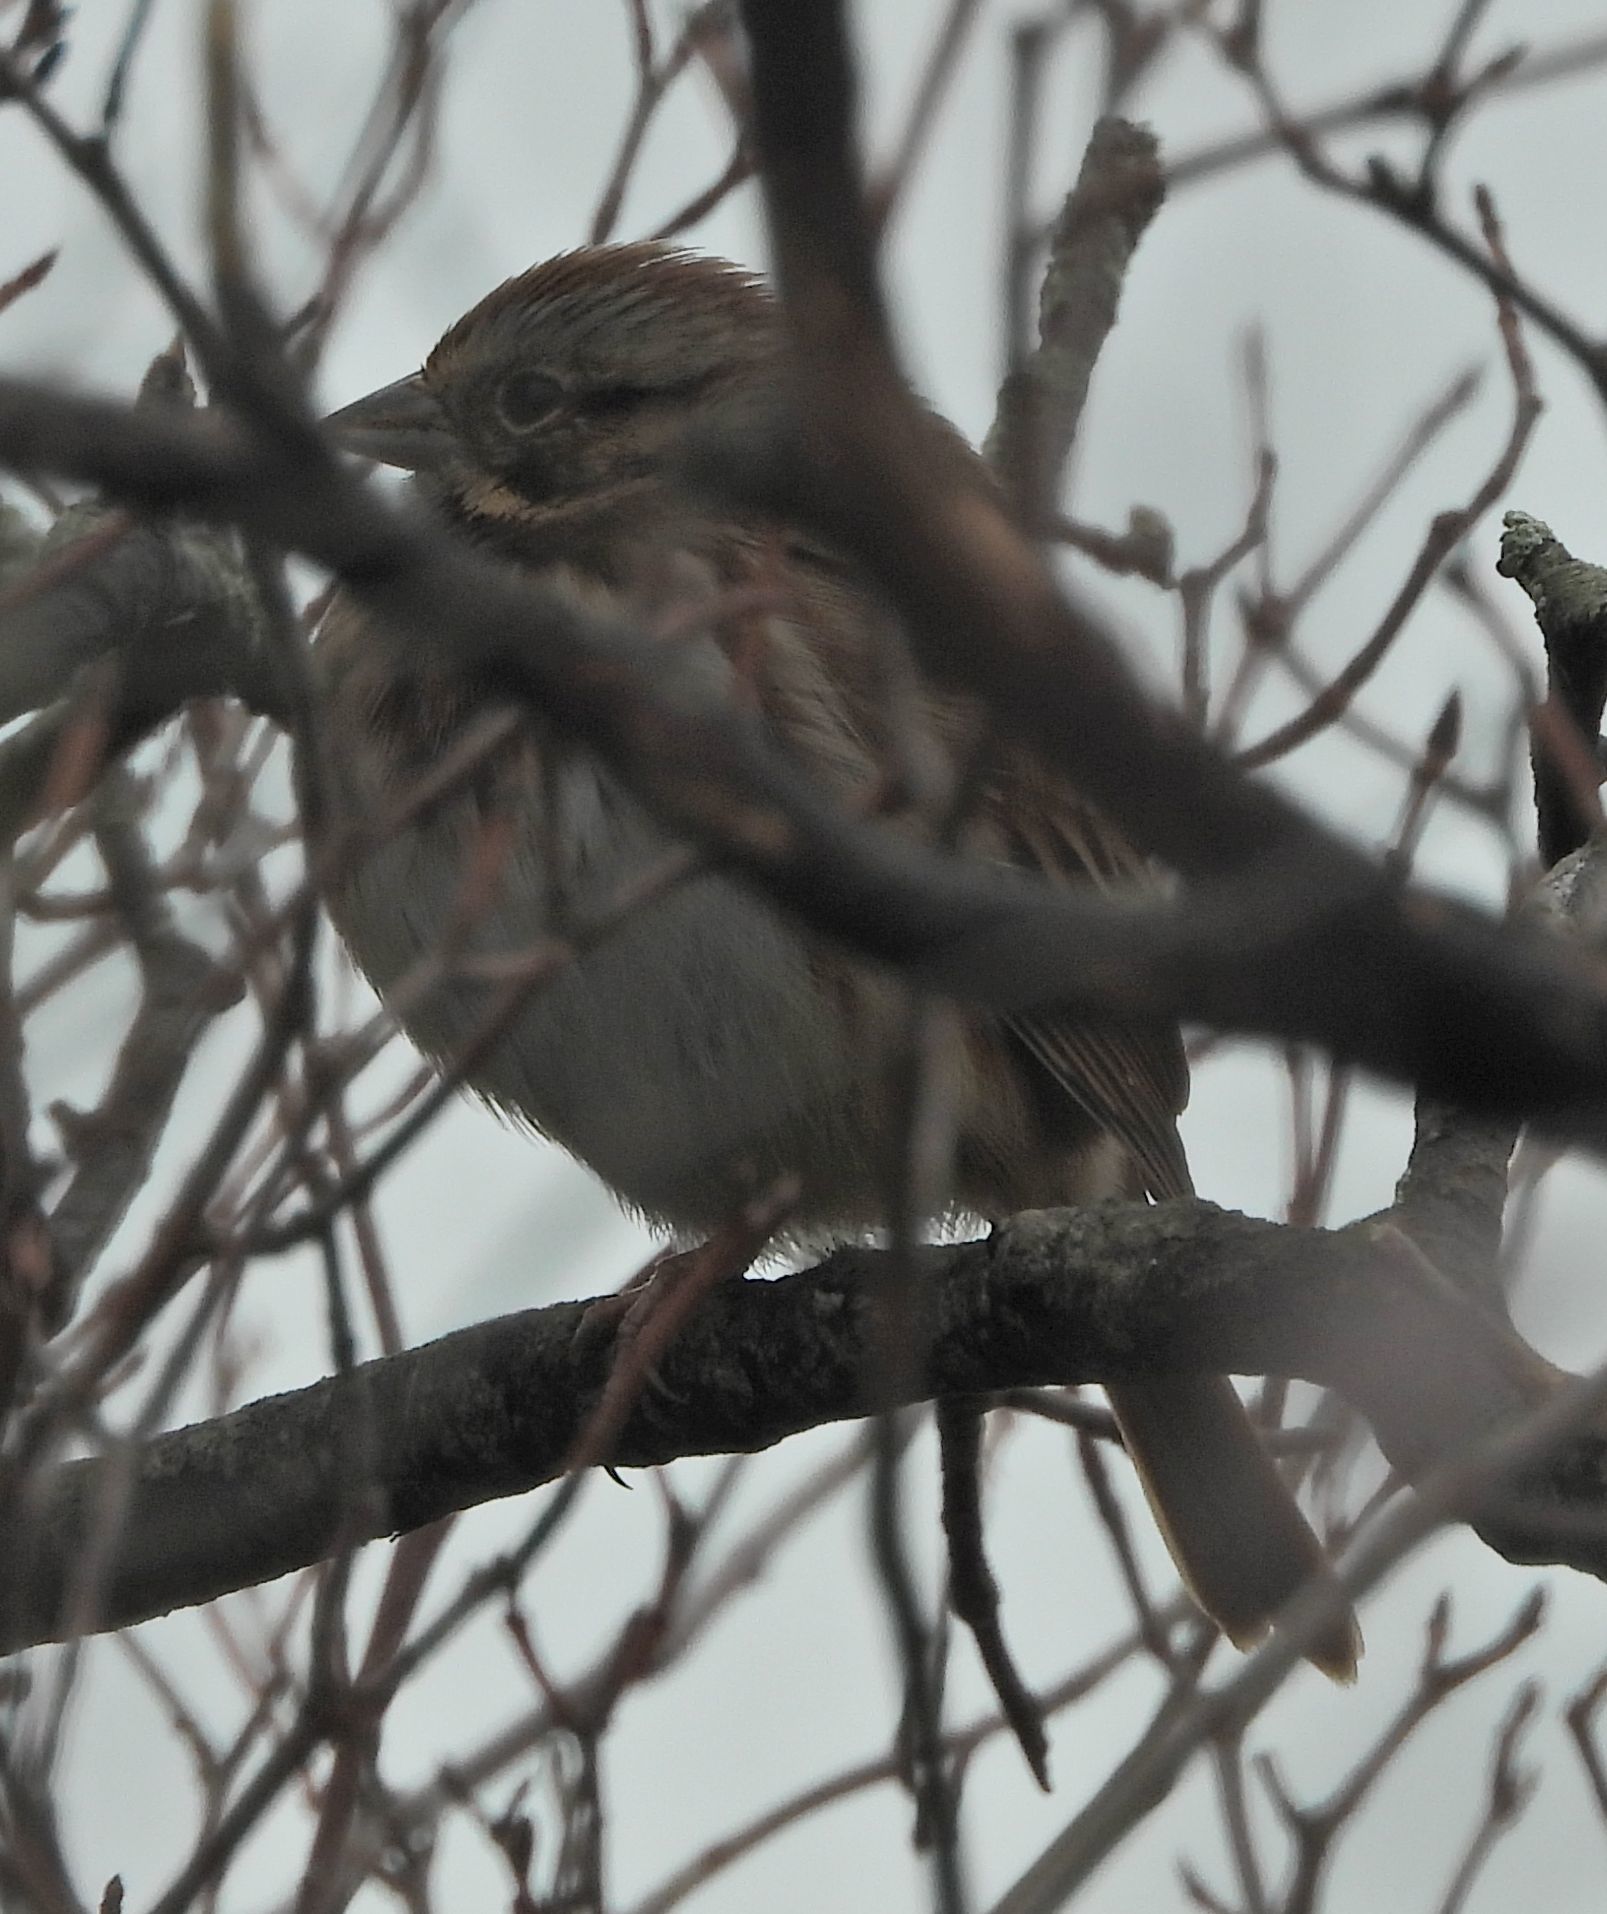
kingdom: Animalia
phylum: Chordata
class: Aves
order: Passeriformes
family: Passerellidae
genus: Melospiza
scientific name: Melospiza melodia
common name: Song sparrow
